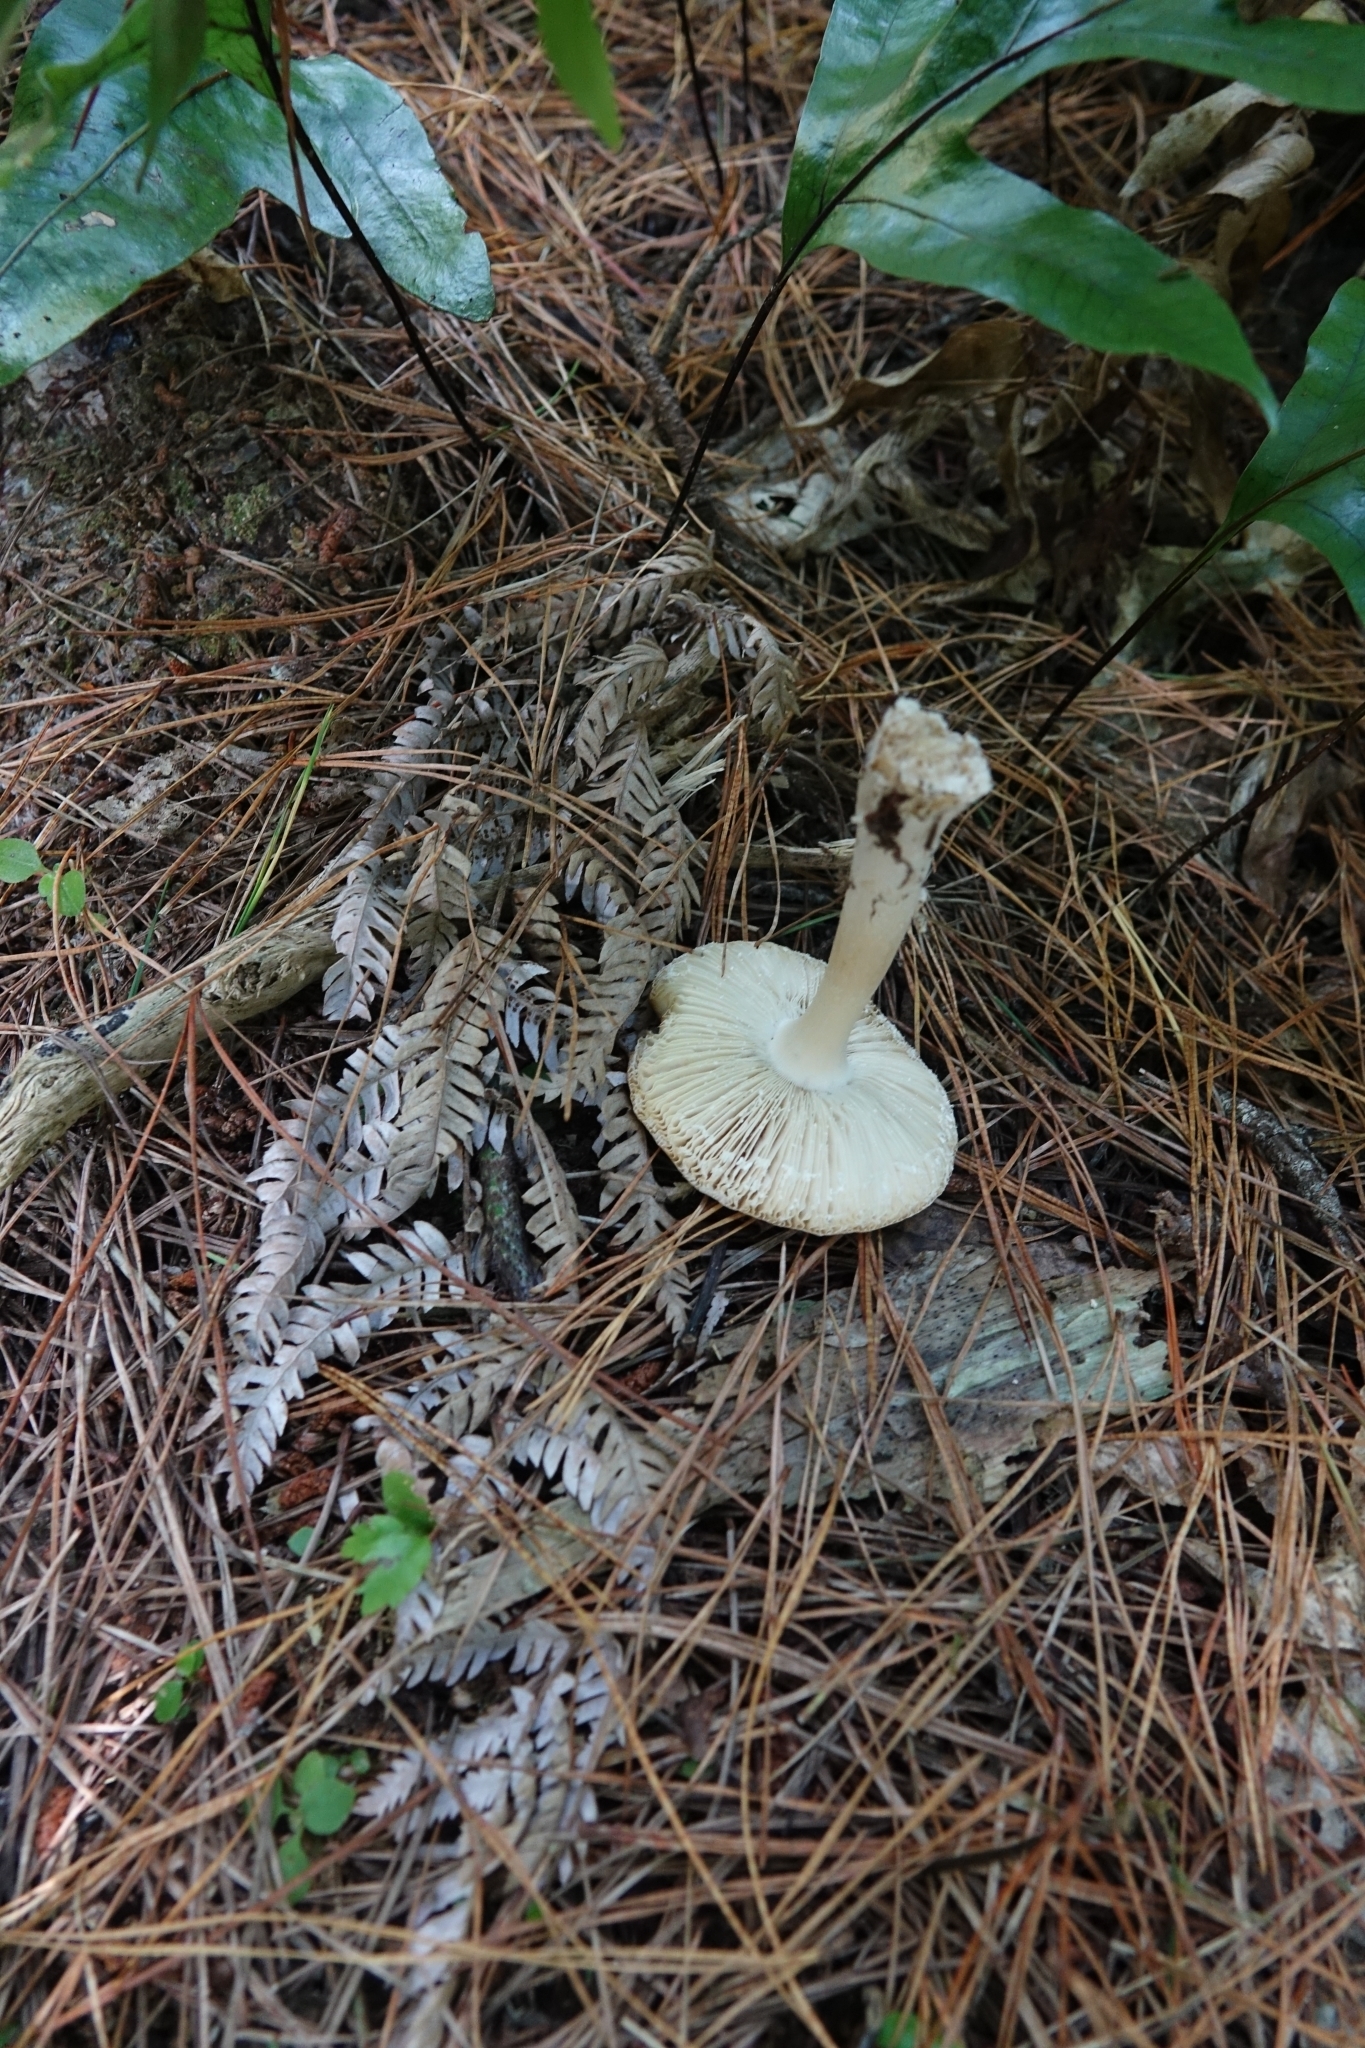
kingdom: Fungi
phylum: Basidiomycota
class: Agaricomycetes
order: Agaricales
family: Amanitaceae
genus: Amanita
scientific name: Amanita gemmata
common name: Jewelled amanita
